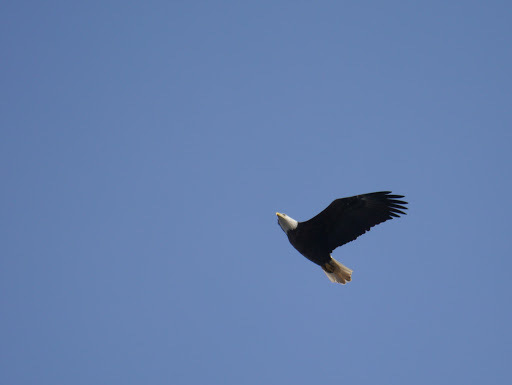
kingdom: Animalia
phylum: Chordata
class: Aves
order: Accipitriformes
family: Accipitridae
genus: Haliaeetus
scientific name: Haliaeetus leucocephalus
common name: Bald eagle
